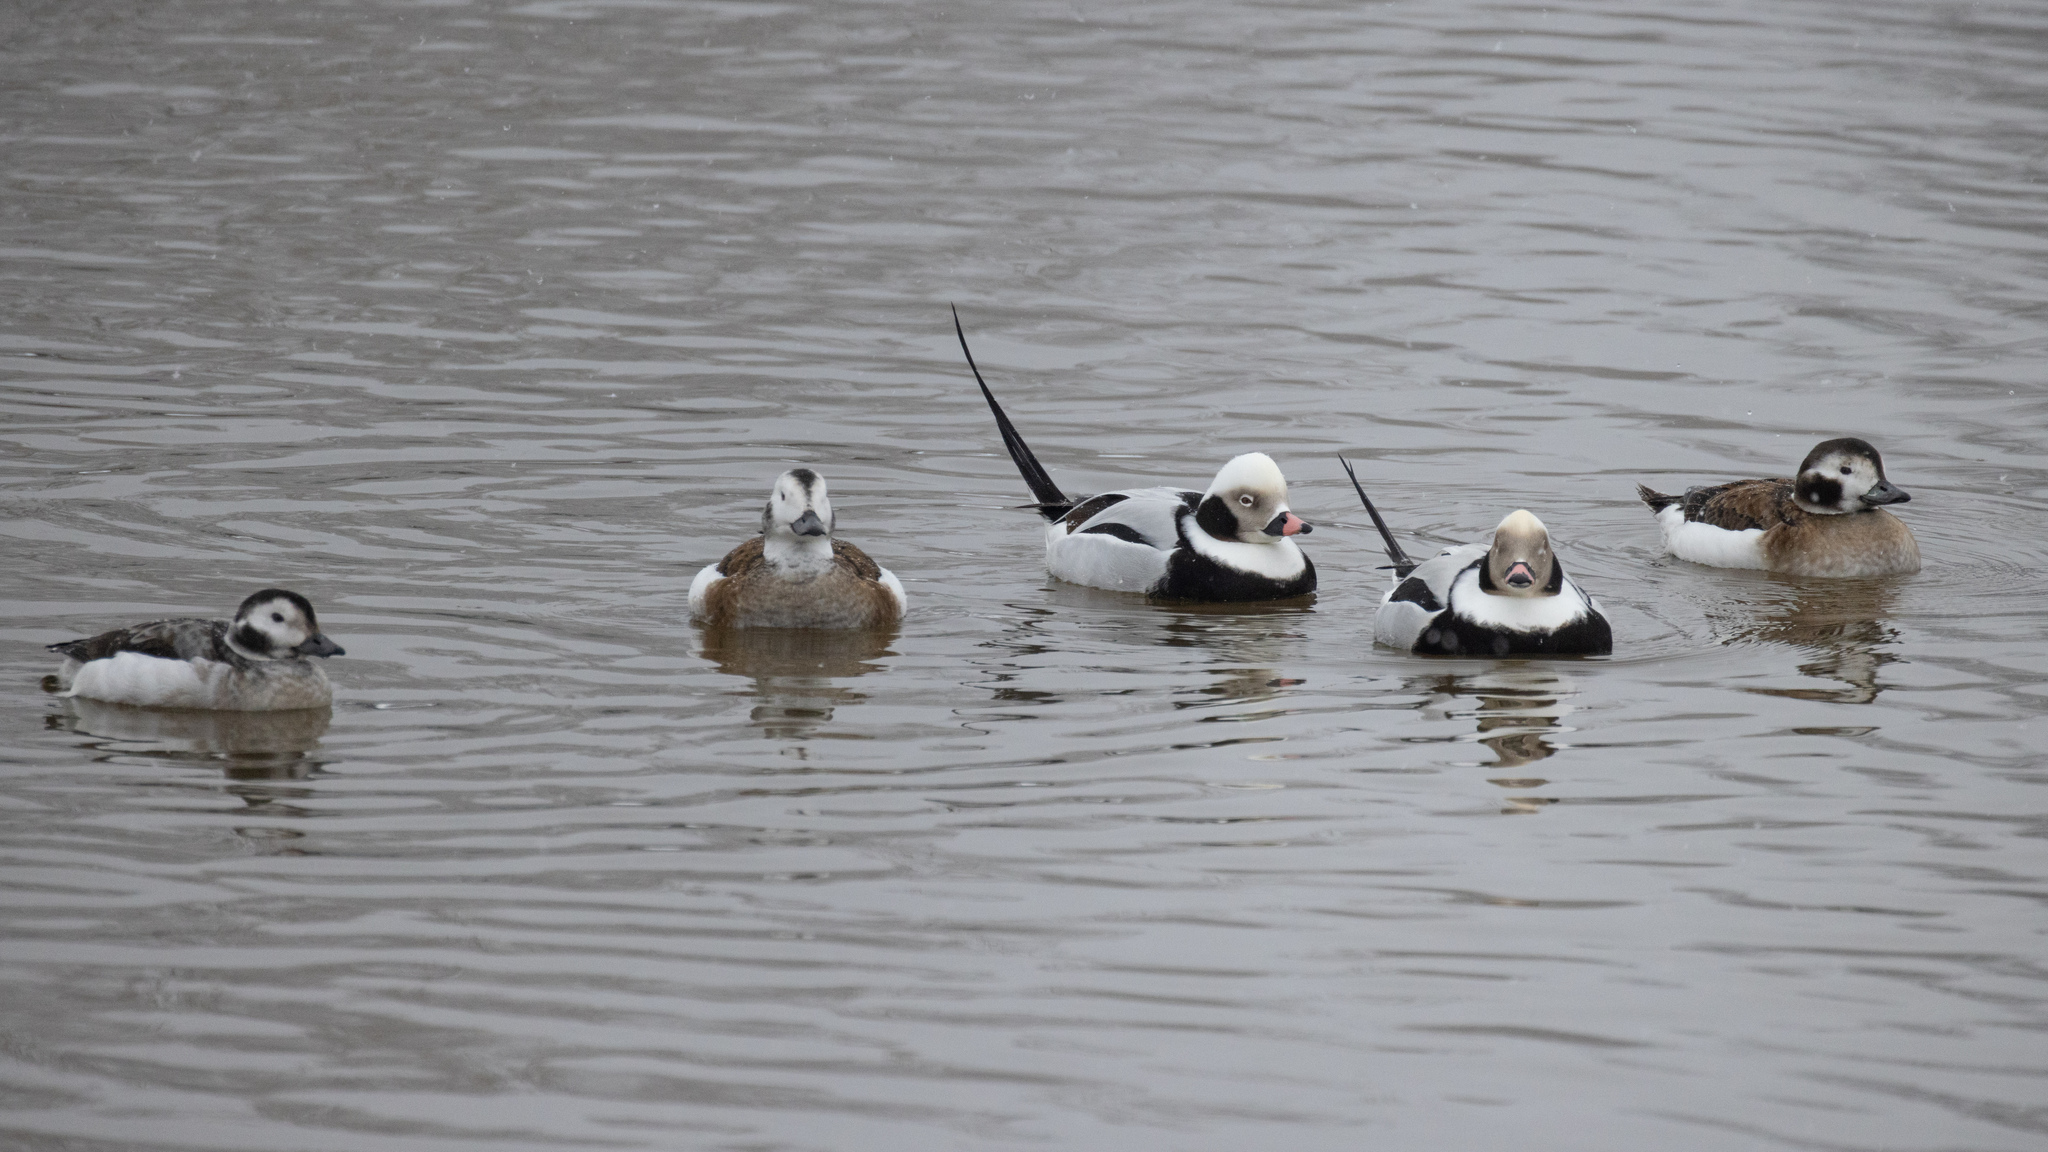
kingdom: Animalia
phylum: Chordata
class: Aves
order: Anseriformes
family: Anatidae
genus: Clangula
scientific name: Clangula hyemalis
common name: Long-tailed duck
